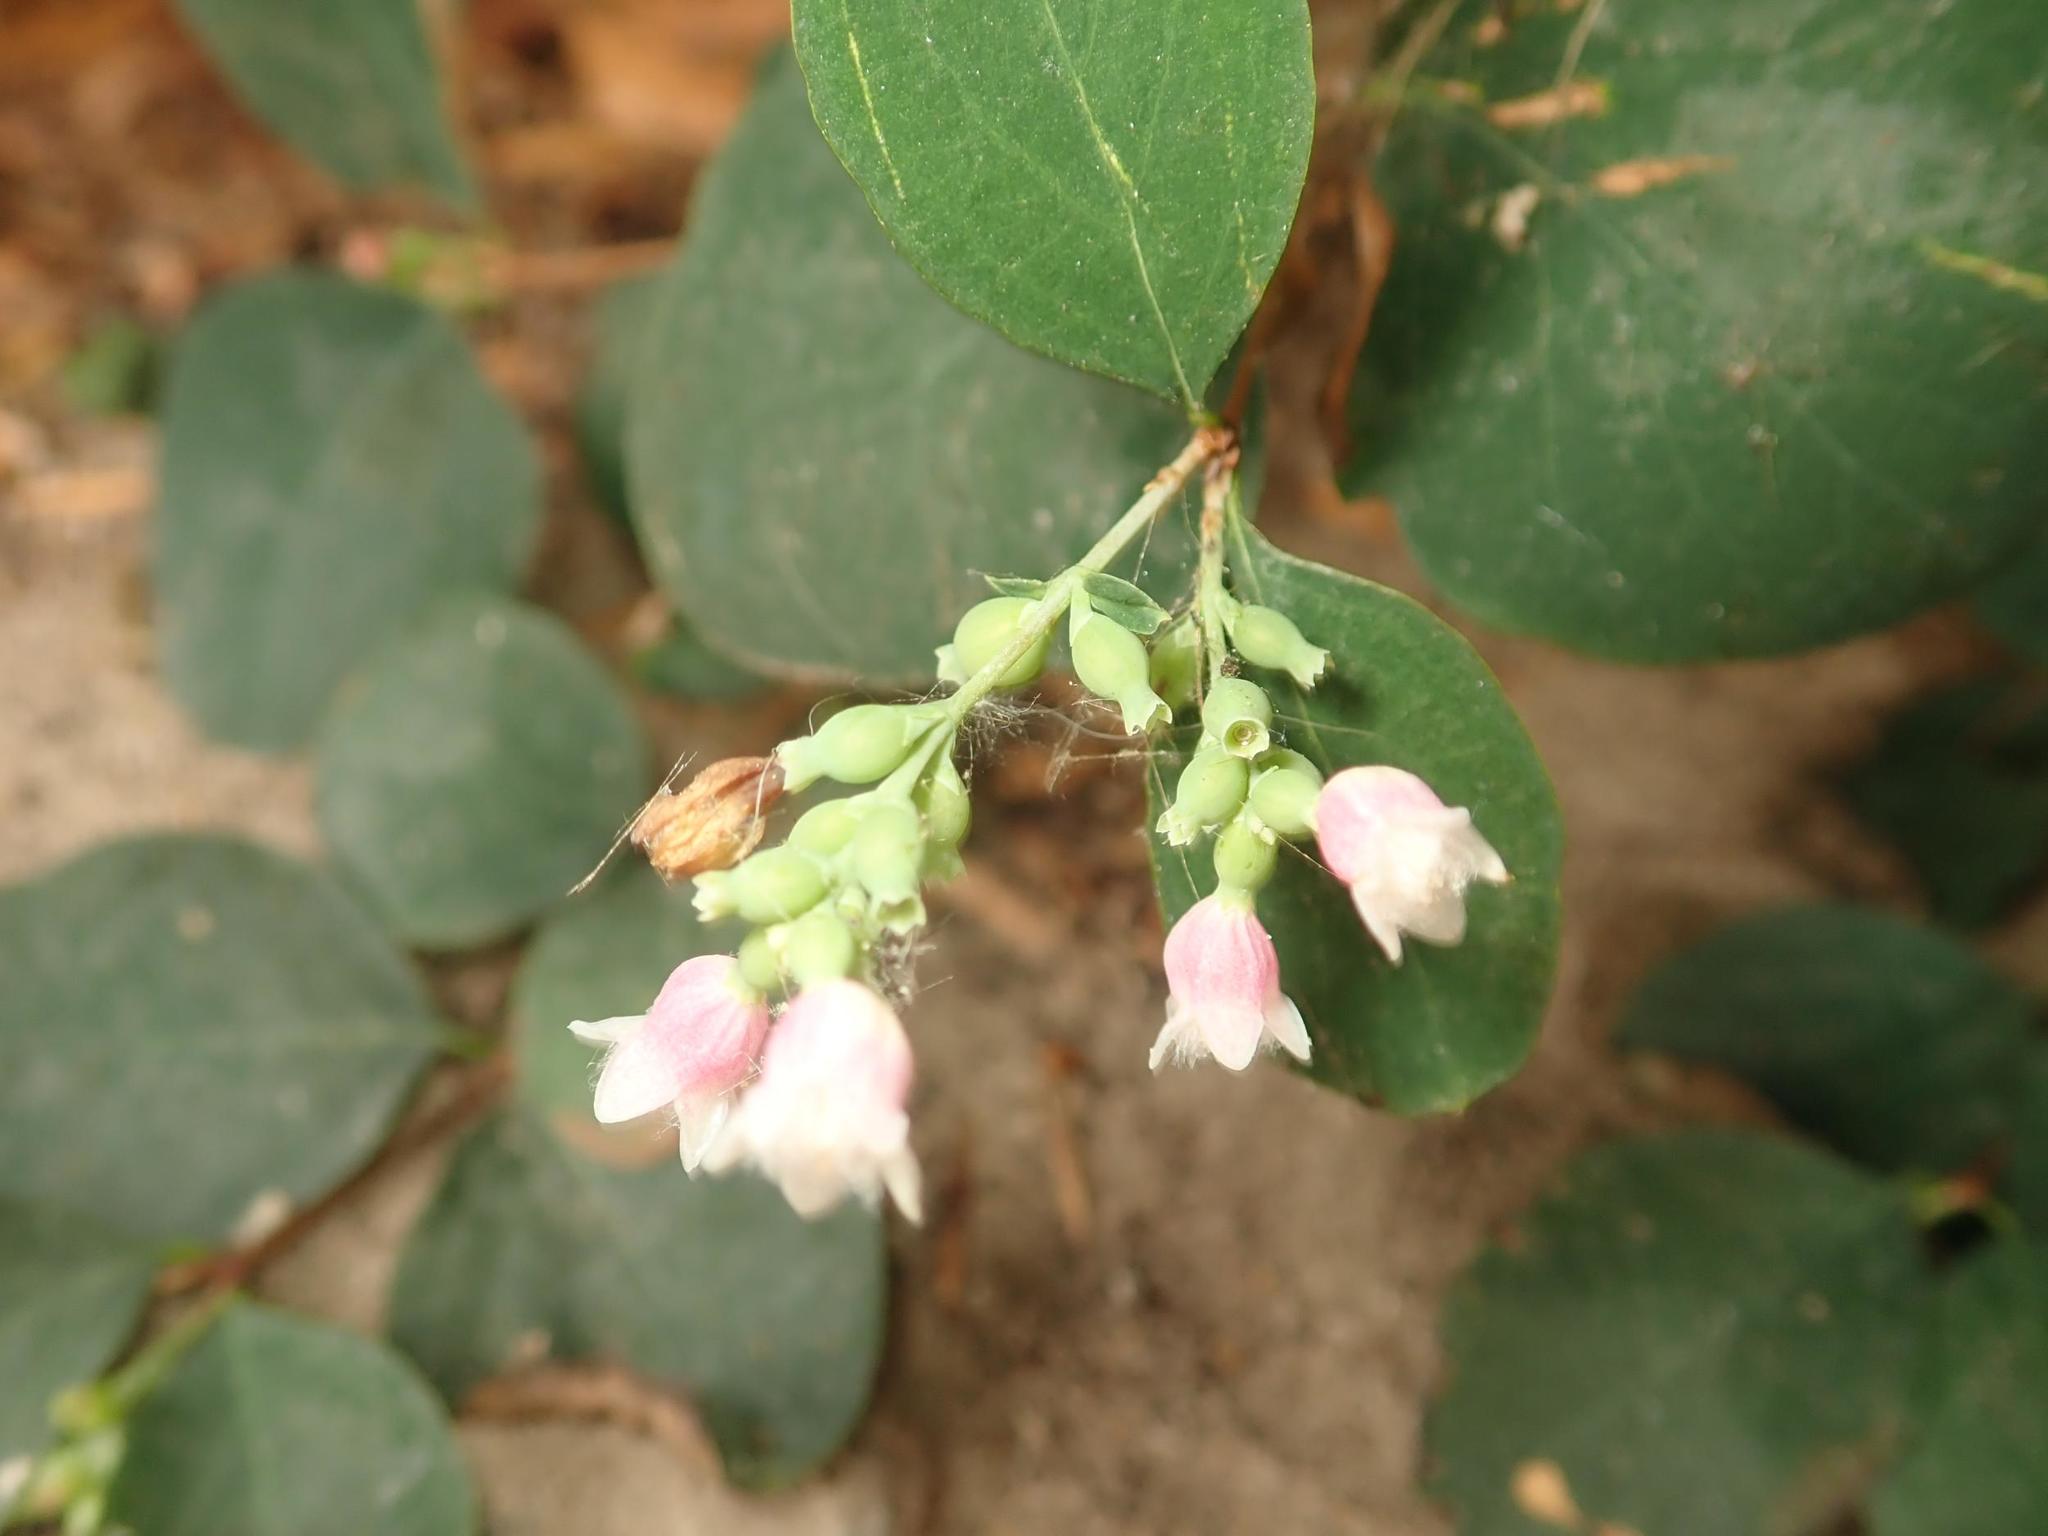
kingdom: Plantae
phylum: Tracheophyta
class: Magnoliopsida
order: Dipsacales
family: Caprifoliaceae
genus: Symphoricarpos
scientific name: Symphoricarpos albus
